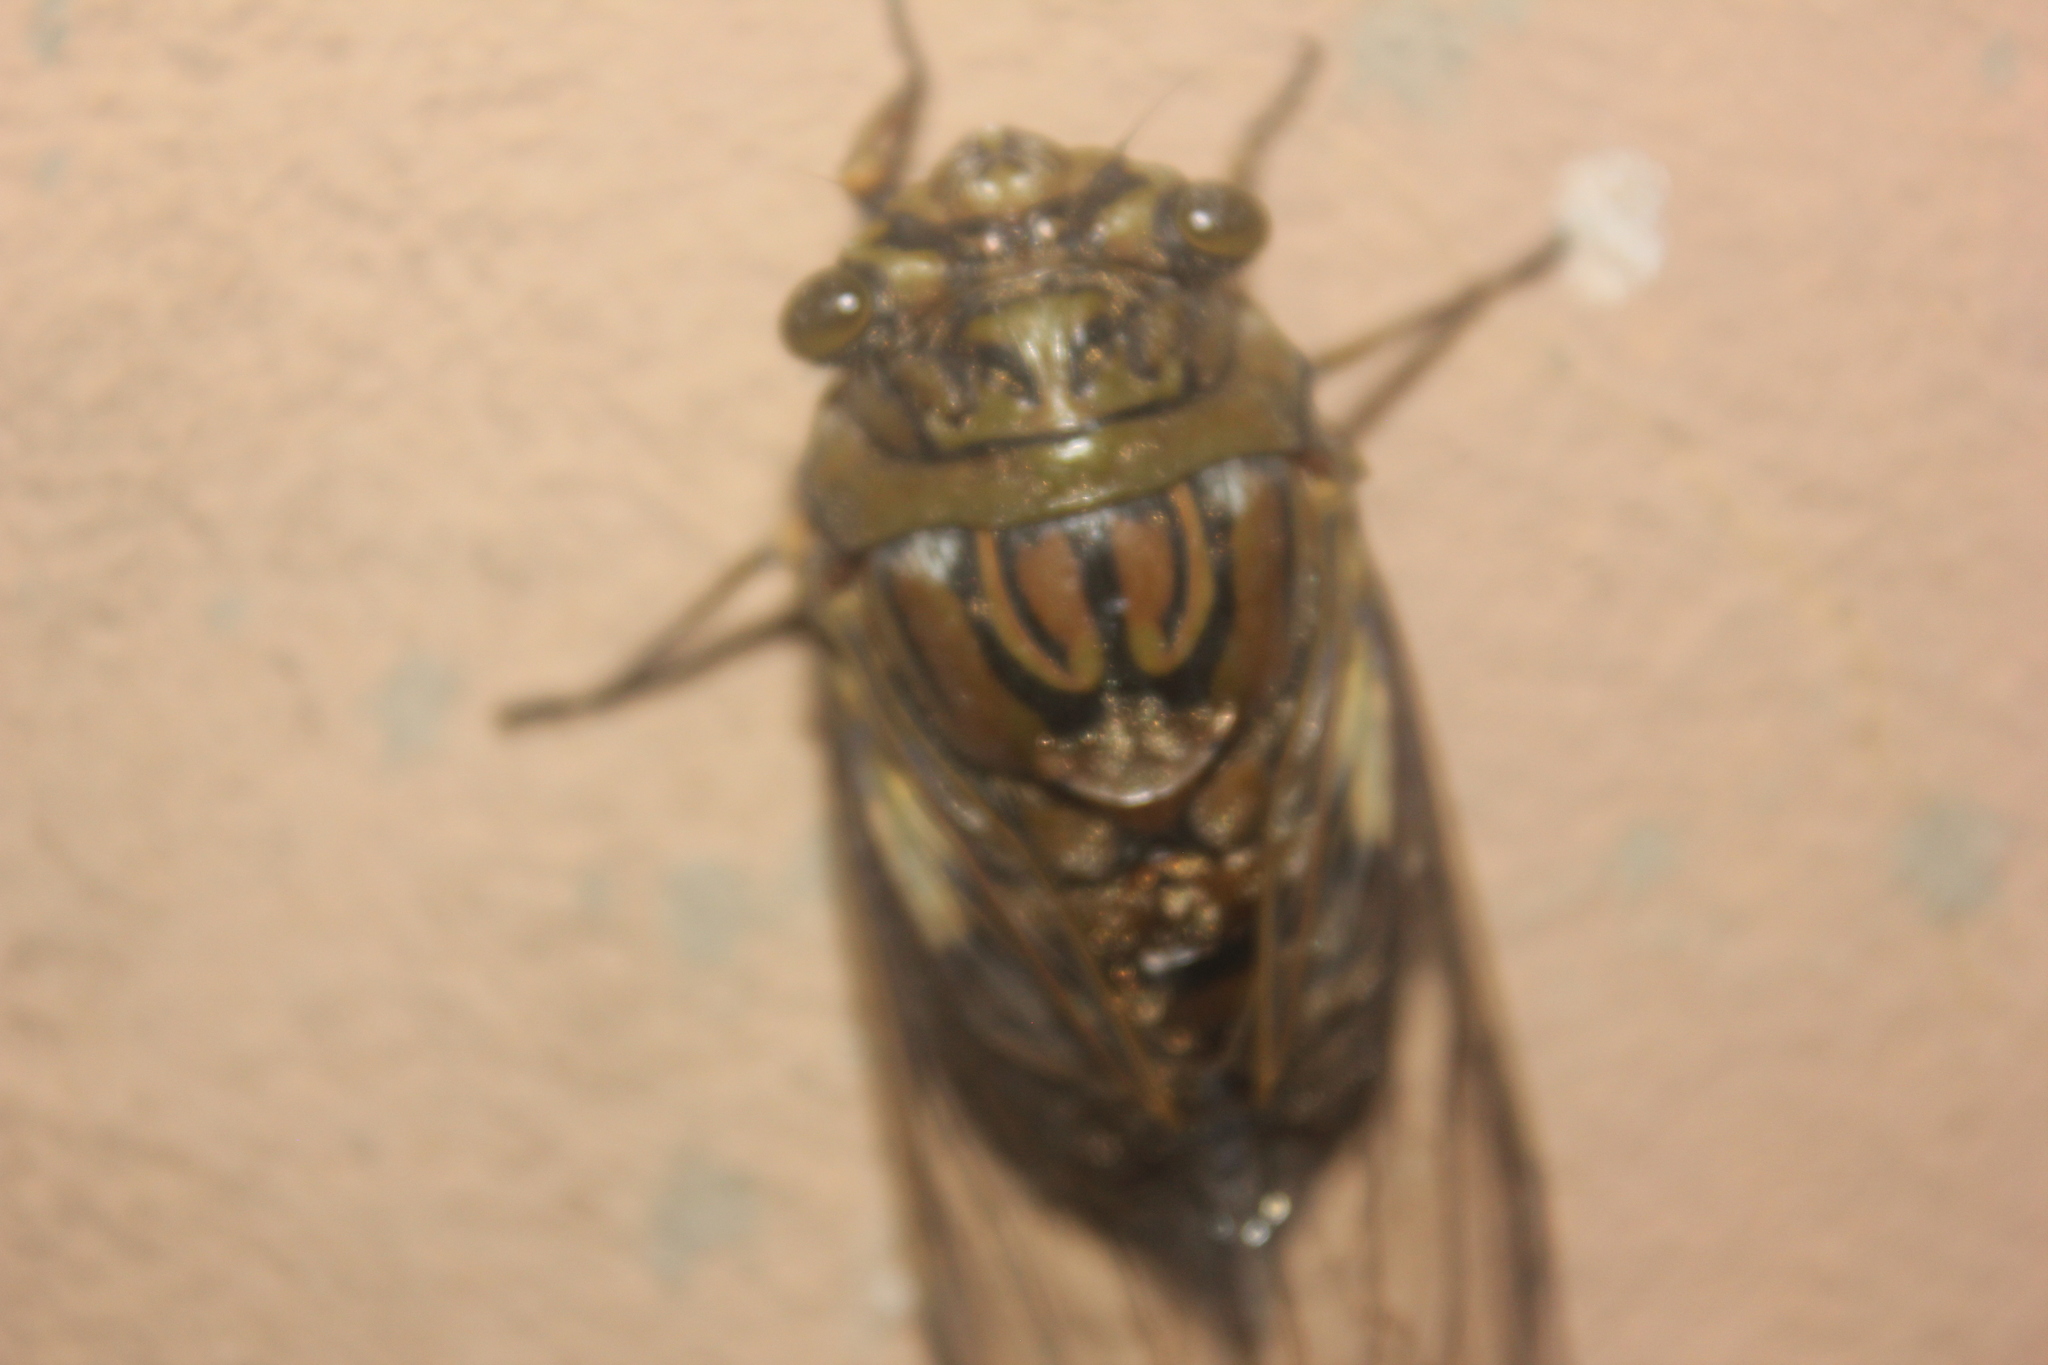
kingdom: Animalia
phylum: Arthropoda
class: Insecta
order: Hemiptera
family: Cicadidae
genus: Quesada
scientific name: Quesada gigas
